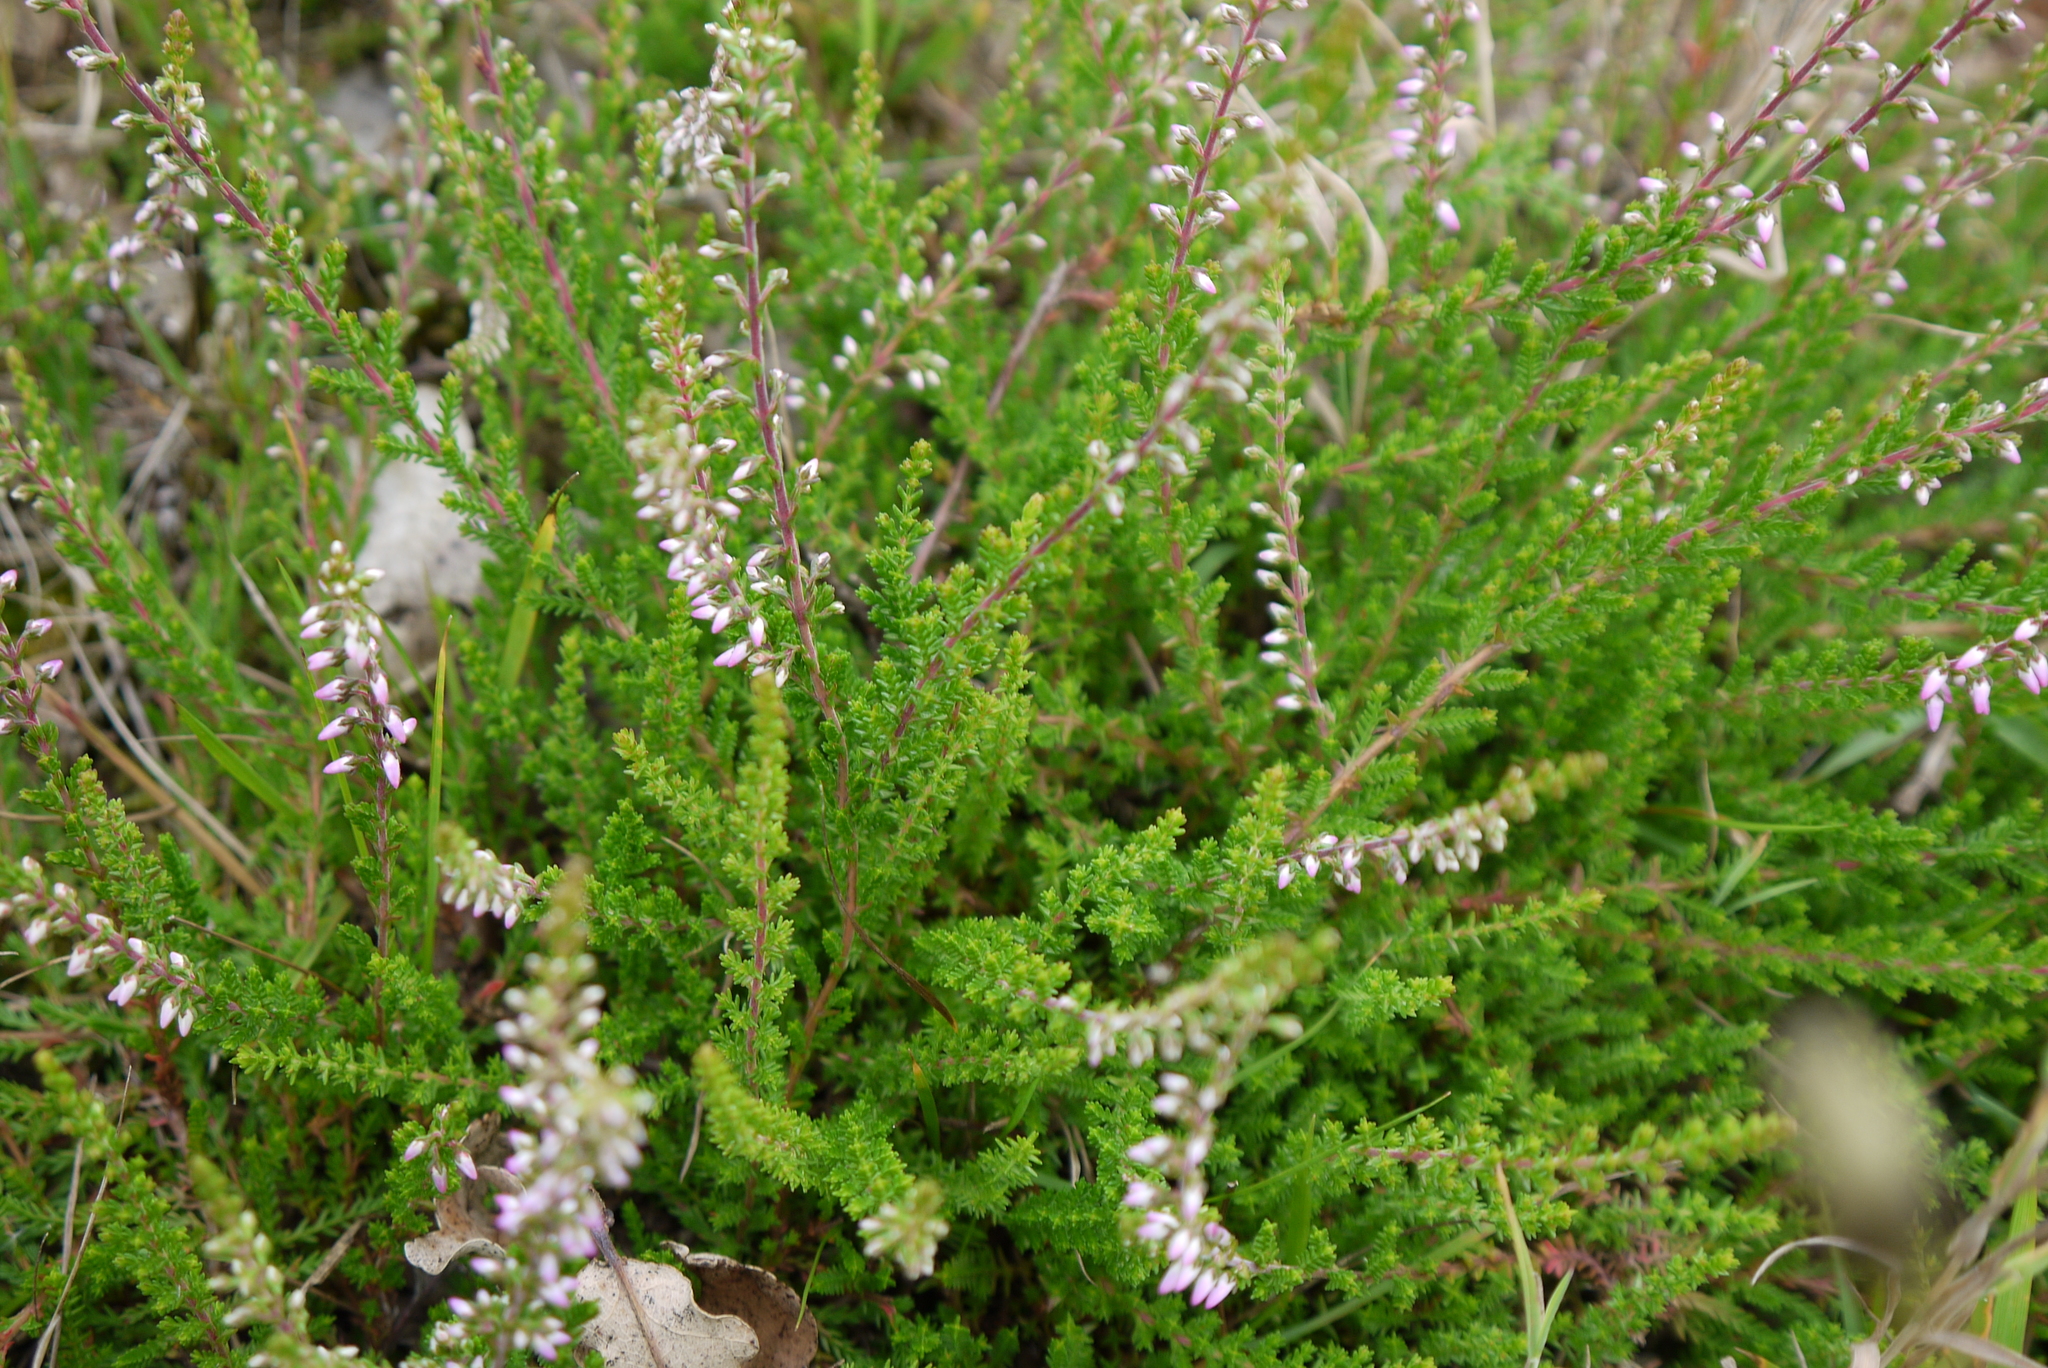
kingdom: Plantae
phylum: Tracheophyta
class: Magnoliopsida
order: Ericales
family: Ericaceae
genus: Calluna
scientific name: Calluna vulgaris
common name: Heather
